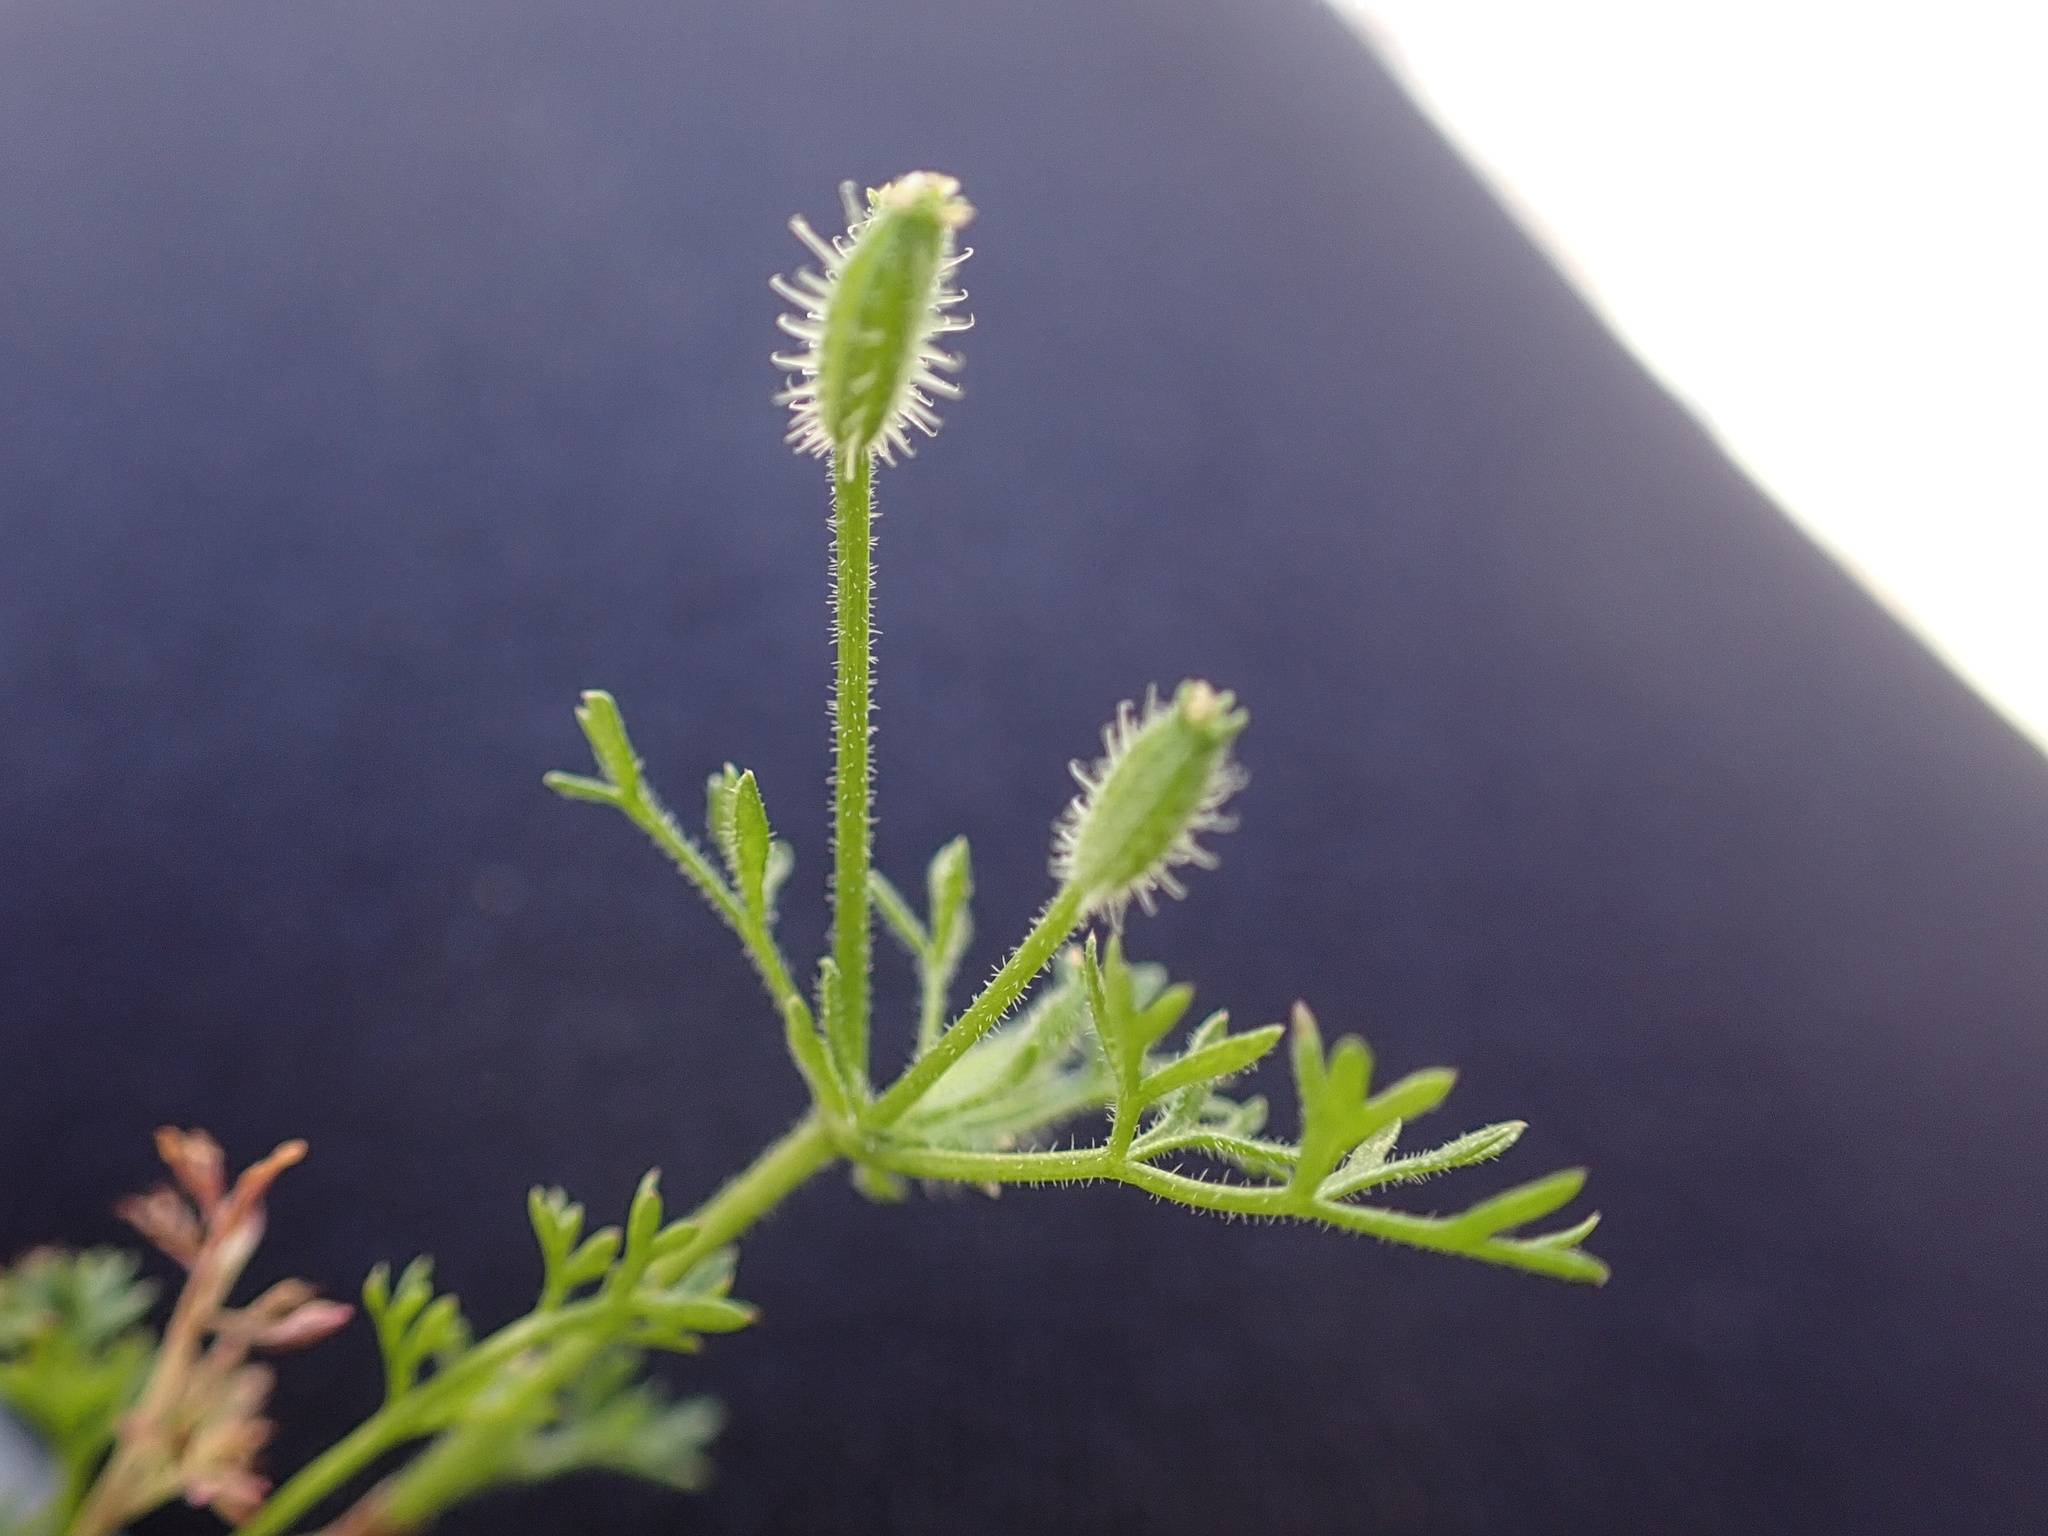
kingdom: Plantae
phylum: Tracheophyta
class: Magnoliopsida
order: Apiales
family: Apiaceae
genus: Yabea
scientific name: Yabea microcarpa
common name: False carrot
